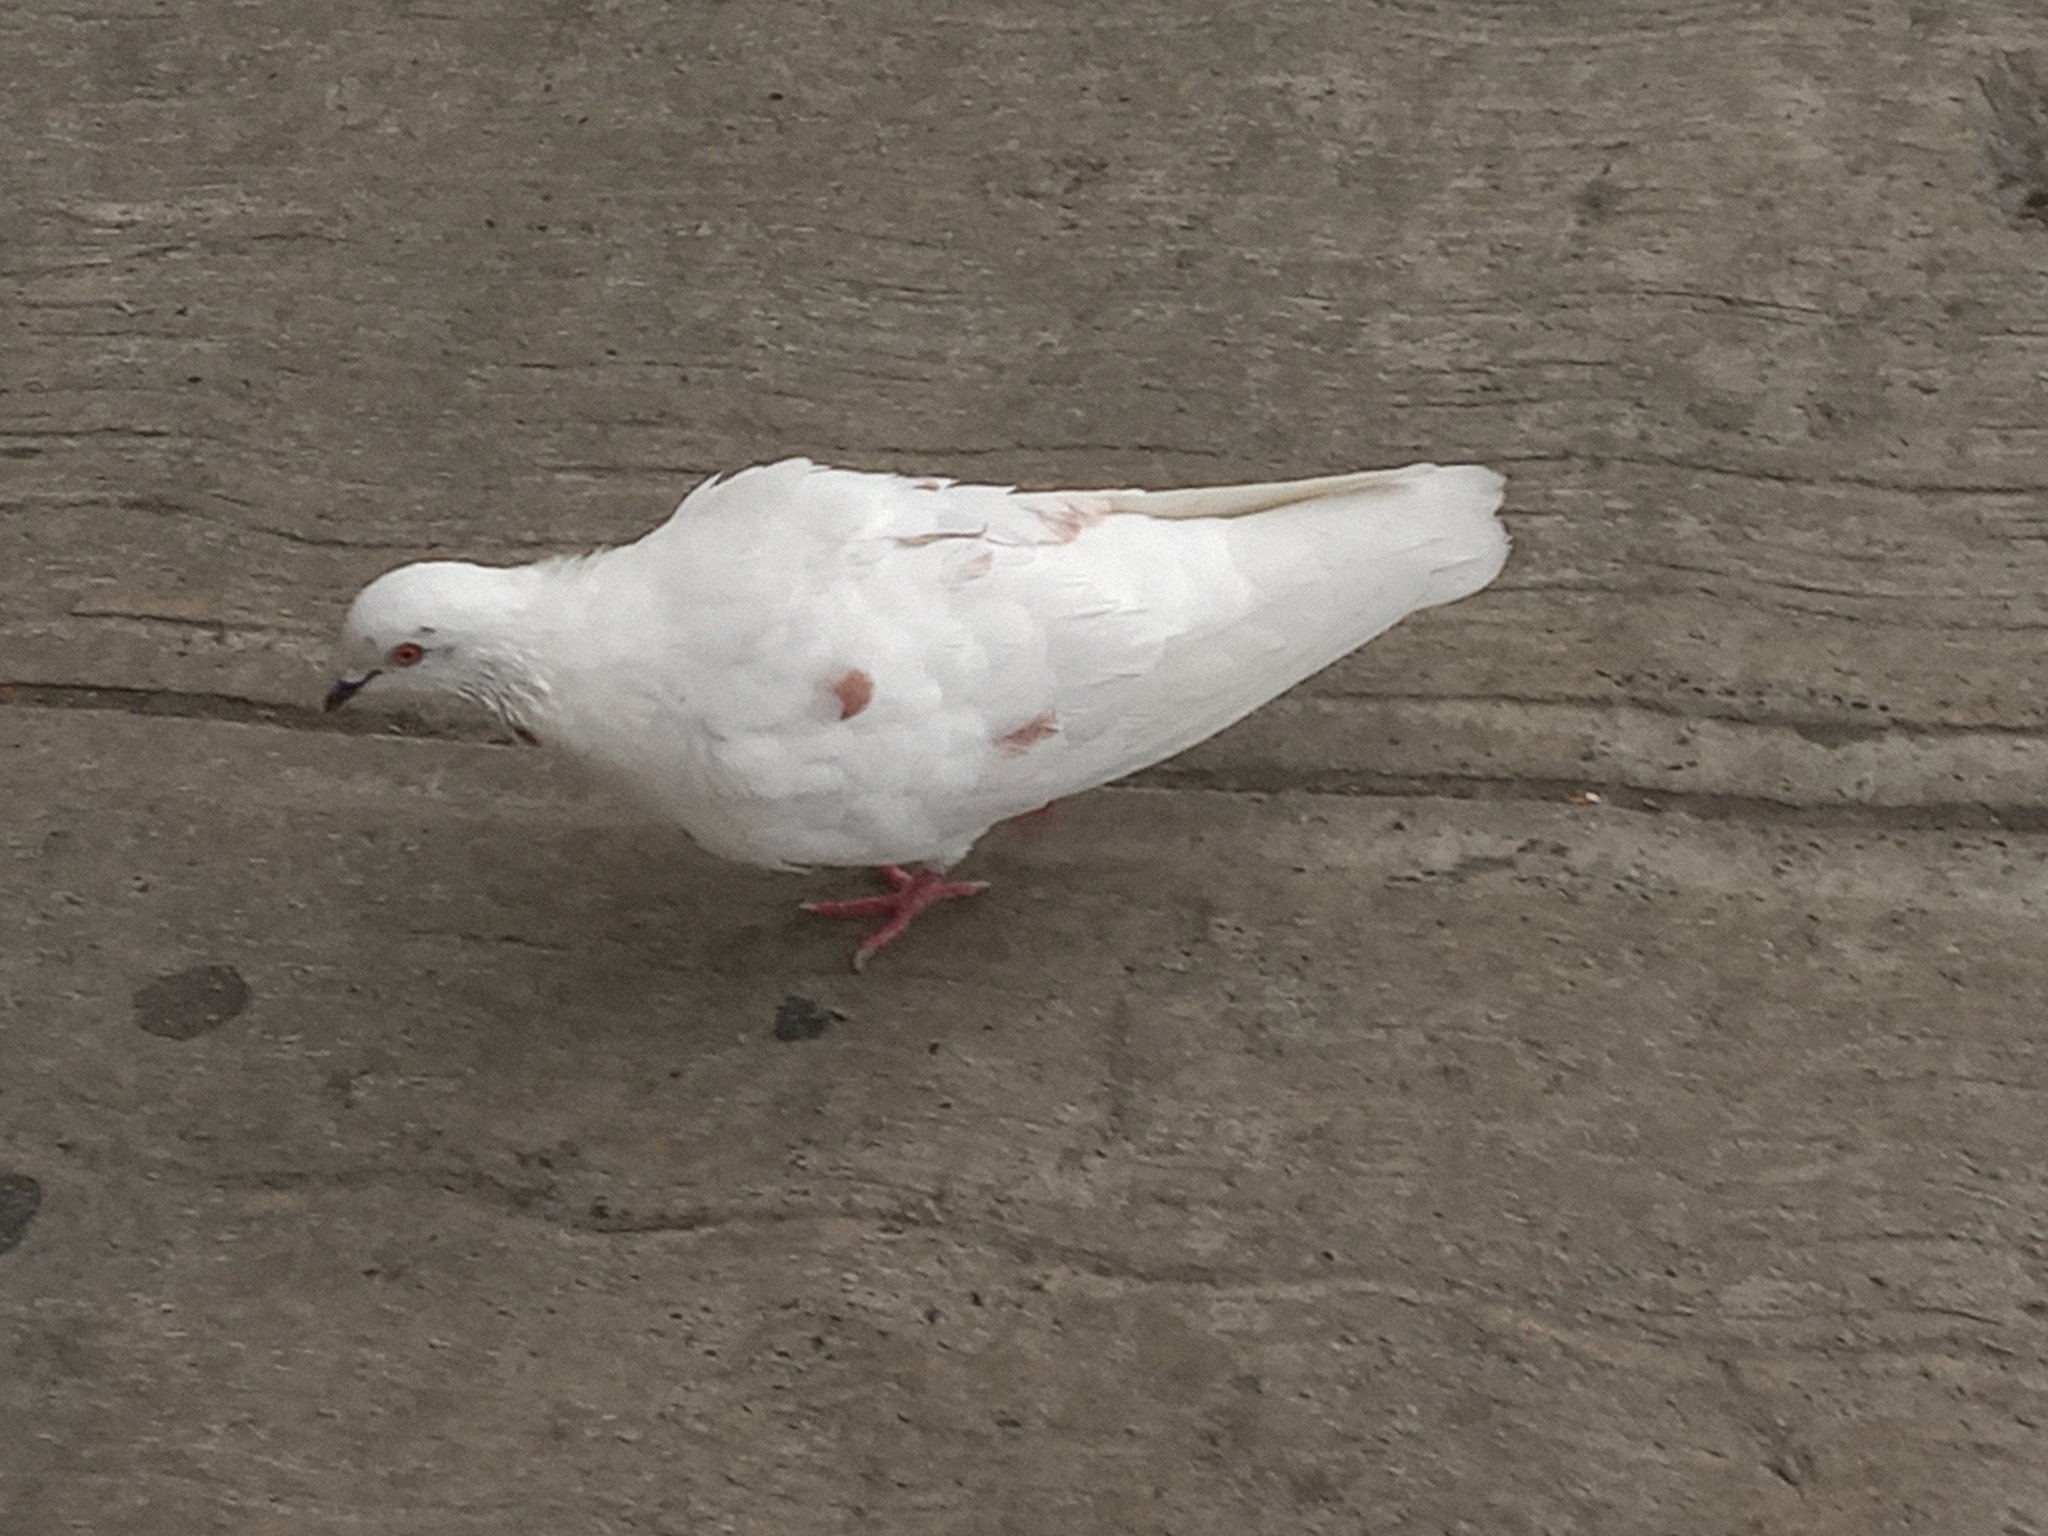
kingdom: Animalia
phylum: Chordata
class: Aves
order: Columbiformes
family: Columbidae
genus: Columba
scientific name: Columba livia
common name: Rock pigeon
